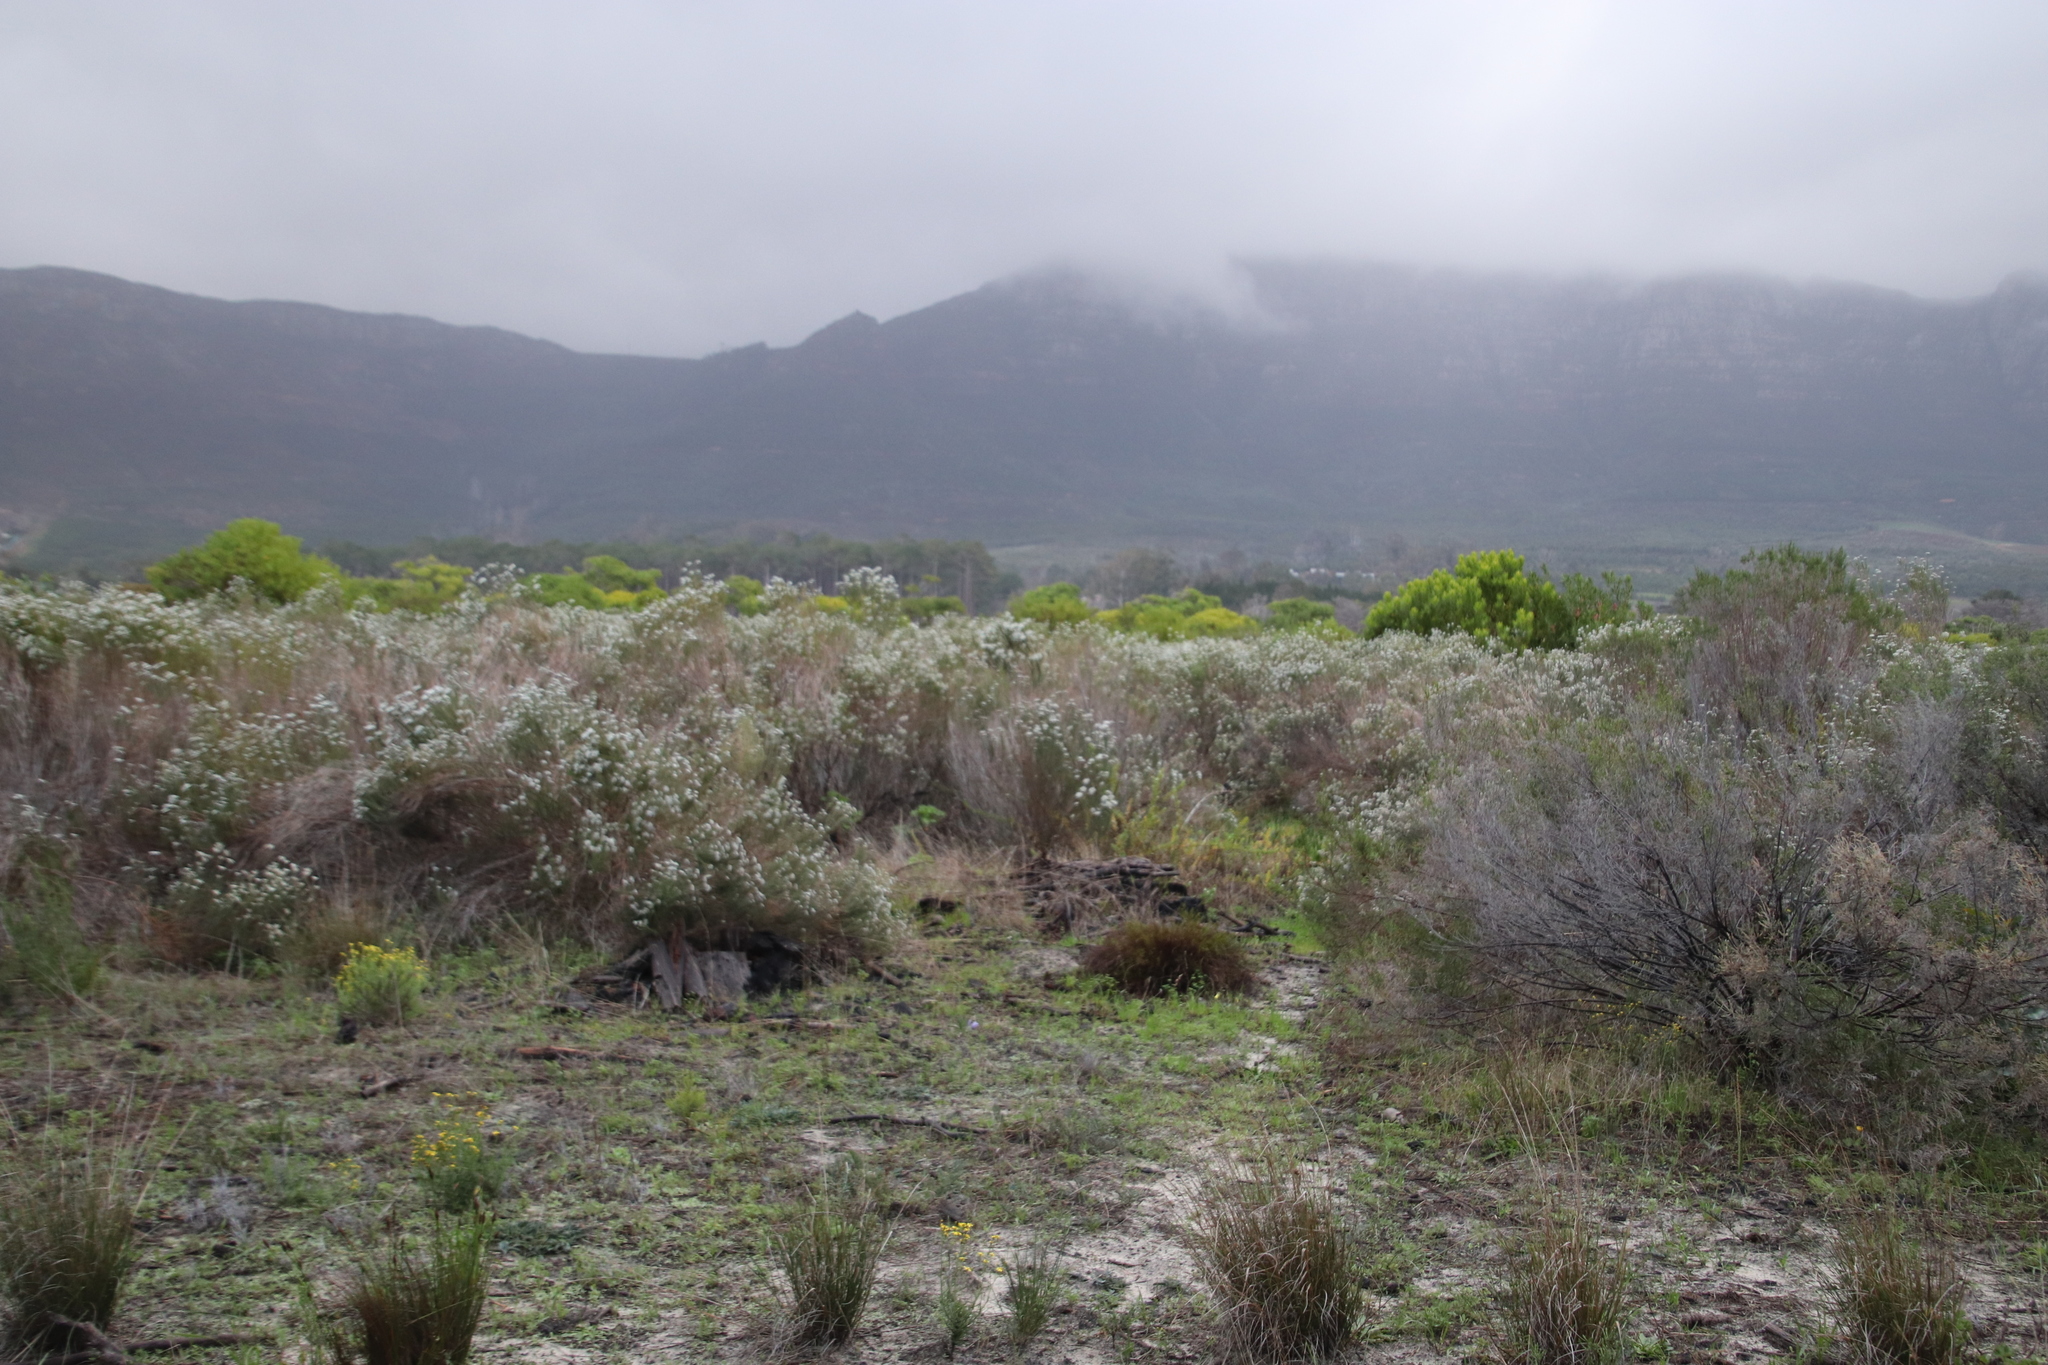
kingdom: Plantae
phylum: Tracheophyta
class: Magnoliopsida
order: Asterales
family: Asteraceae
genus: Metalasia
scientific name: Metalasia densa
